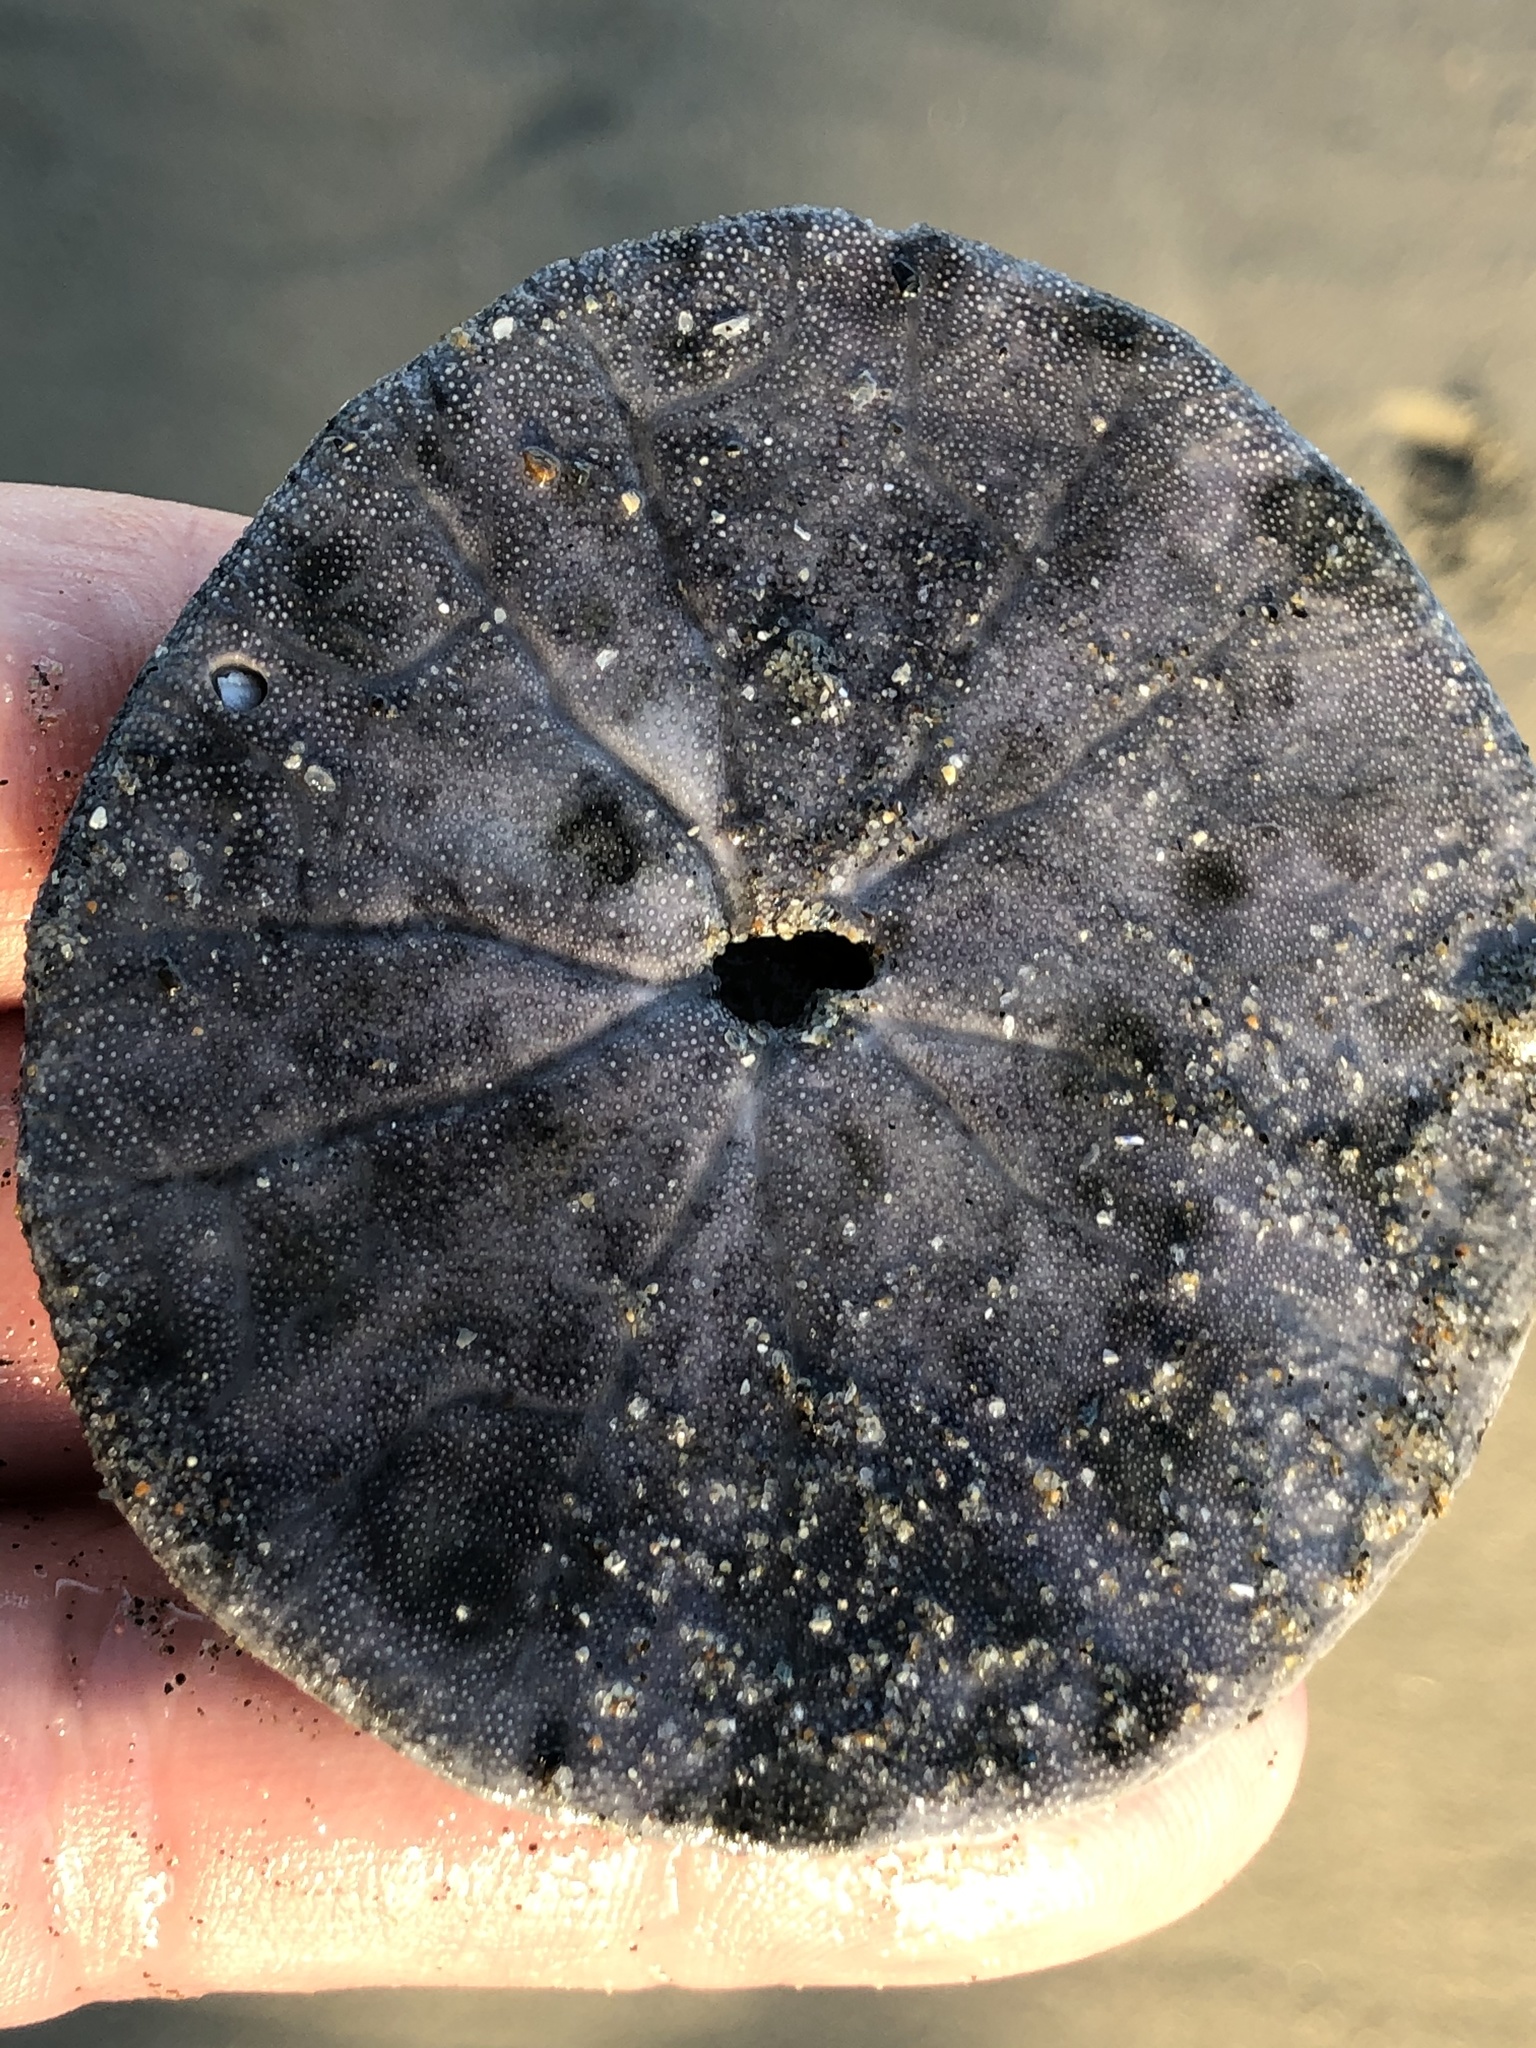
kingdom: Animalia
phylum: Echinodermata
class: Echinoidea
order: Echinolampadacea
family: Dendrasteridae
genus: Dendraster
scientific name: Dendraster excentricus
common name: Eccentric sand dollar sea urchin
